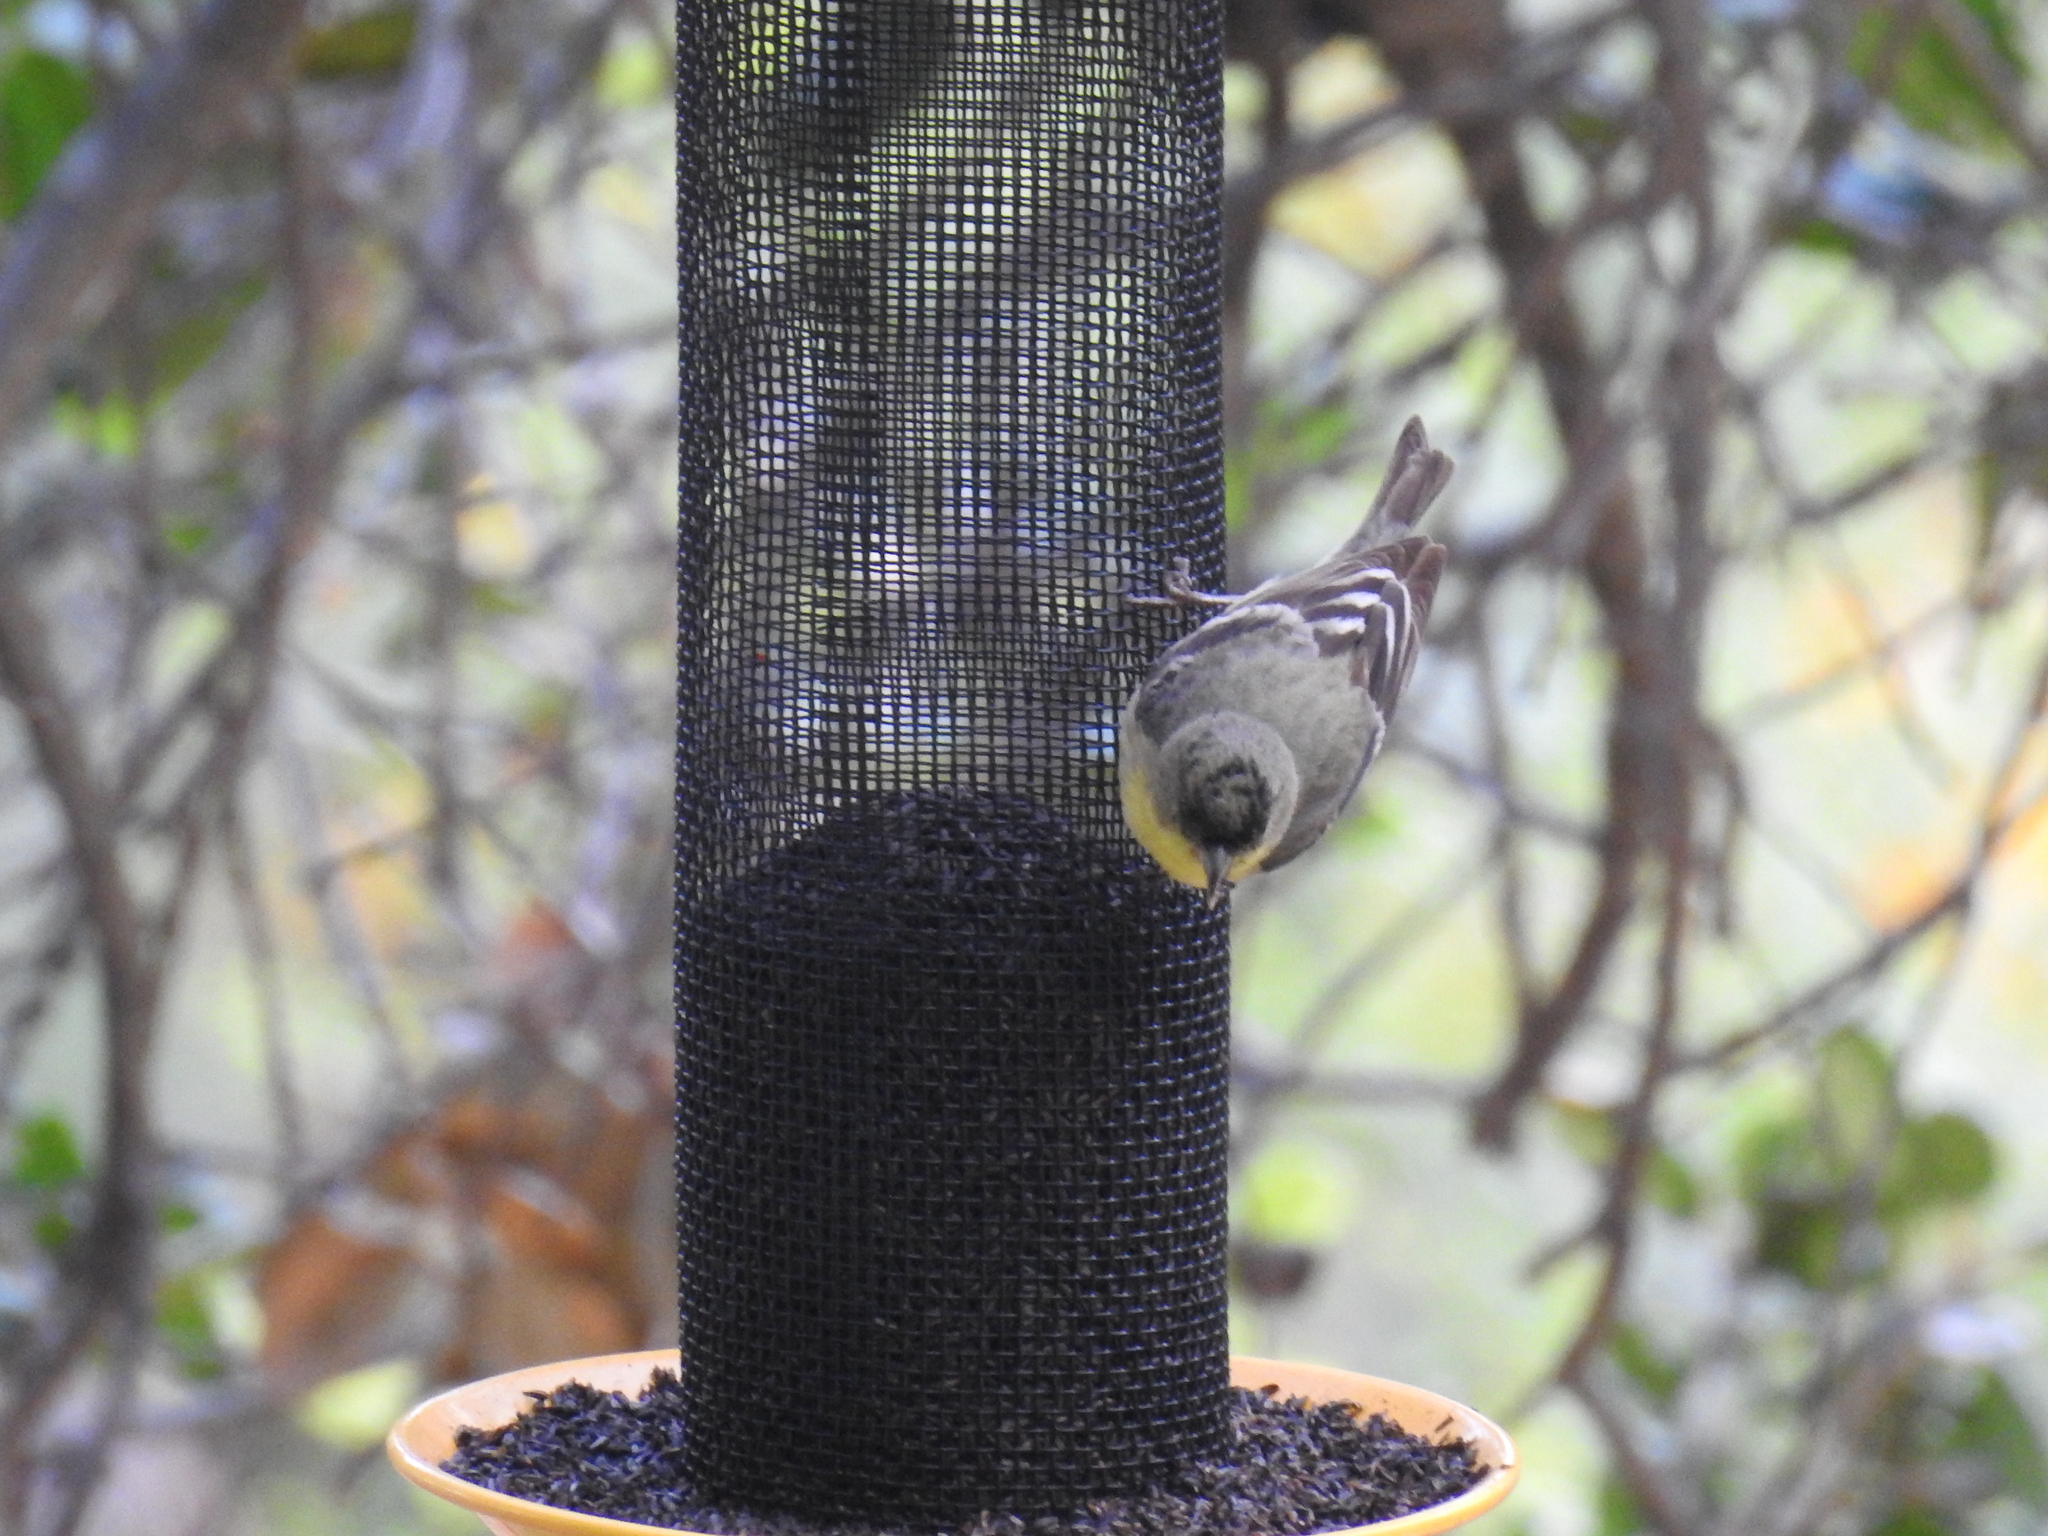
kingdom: Animalia
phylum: Chordata
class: Aves
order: Passeriformes
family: Fringillidae
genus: Spinus
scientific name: Spinus psaltria
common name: Lesser goldfinch
